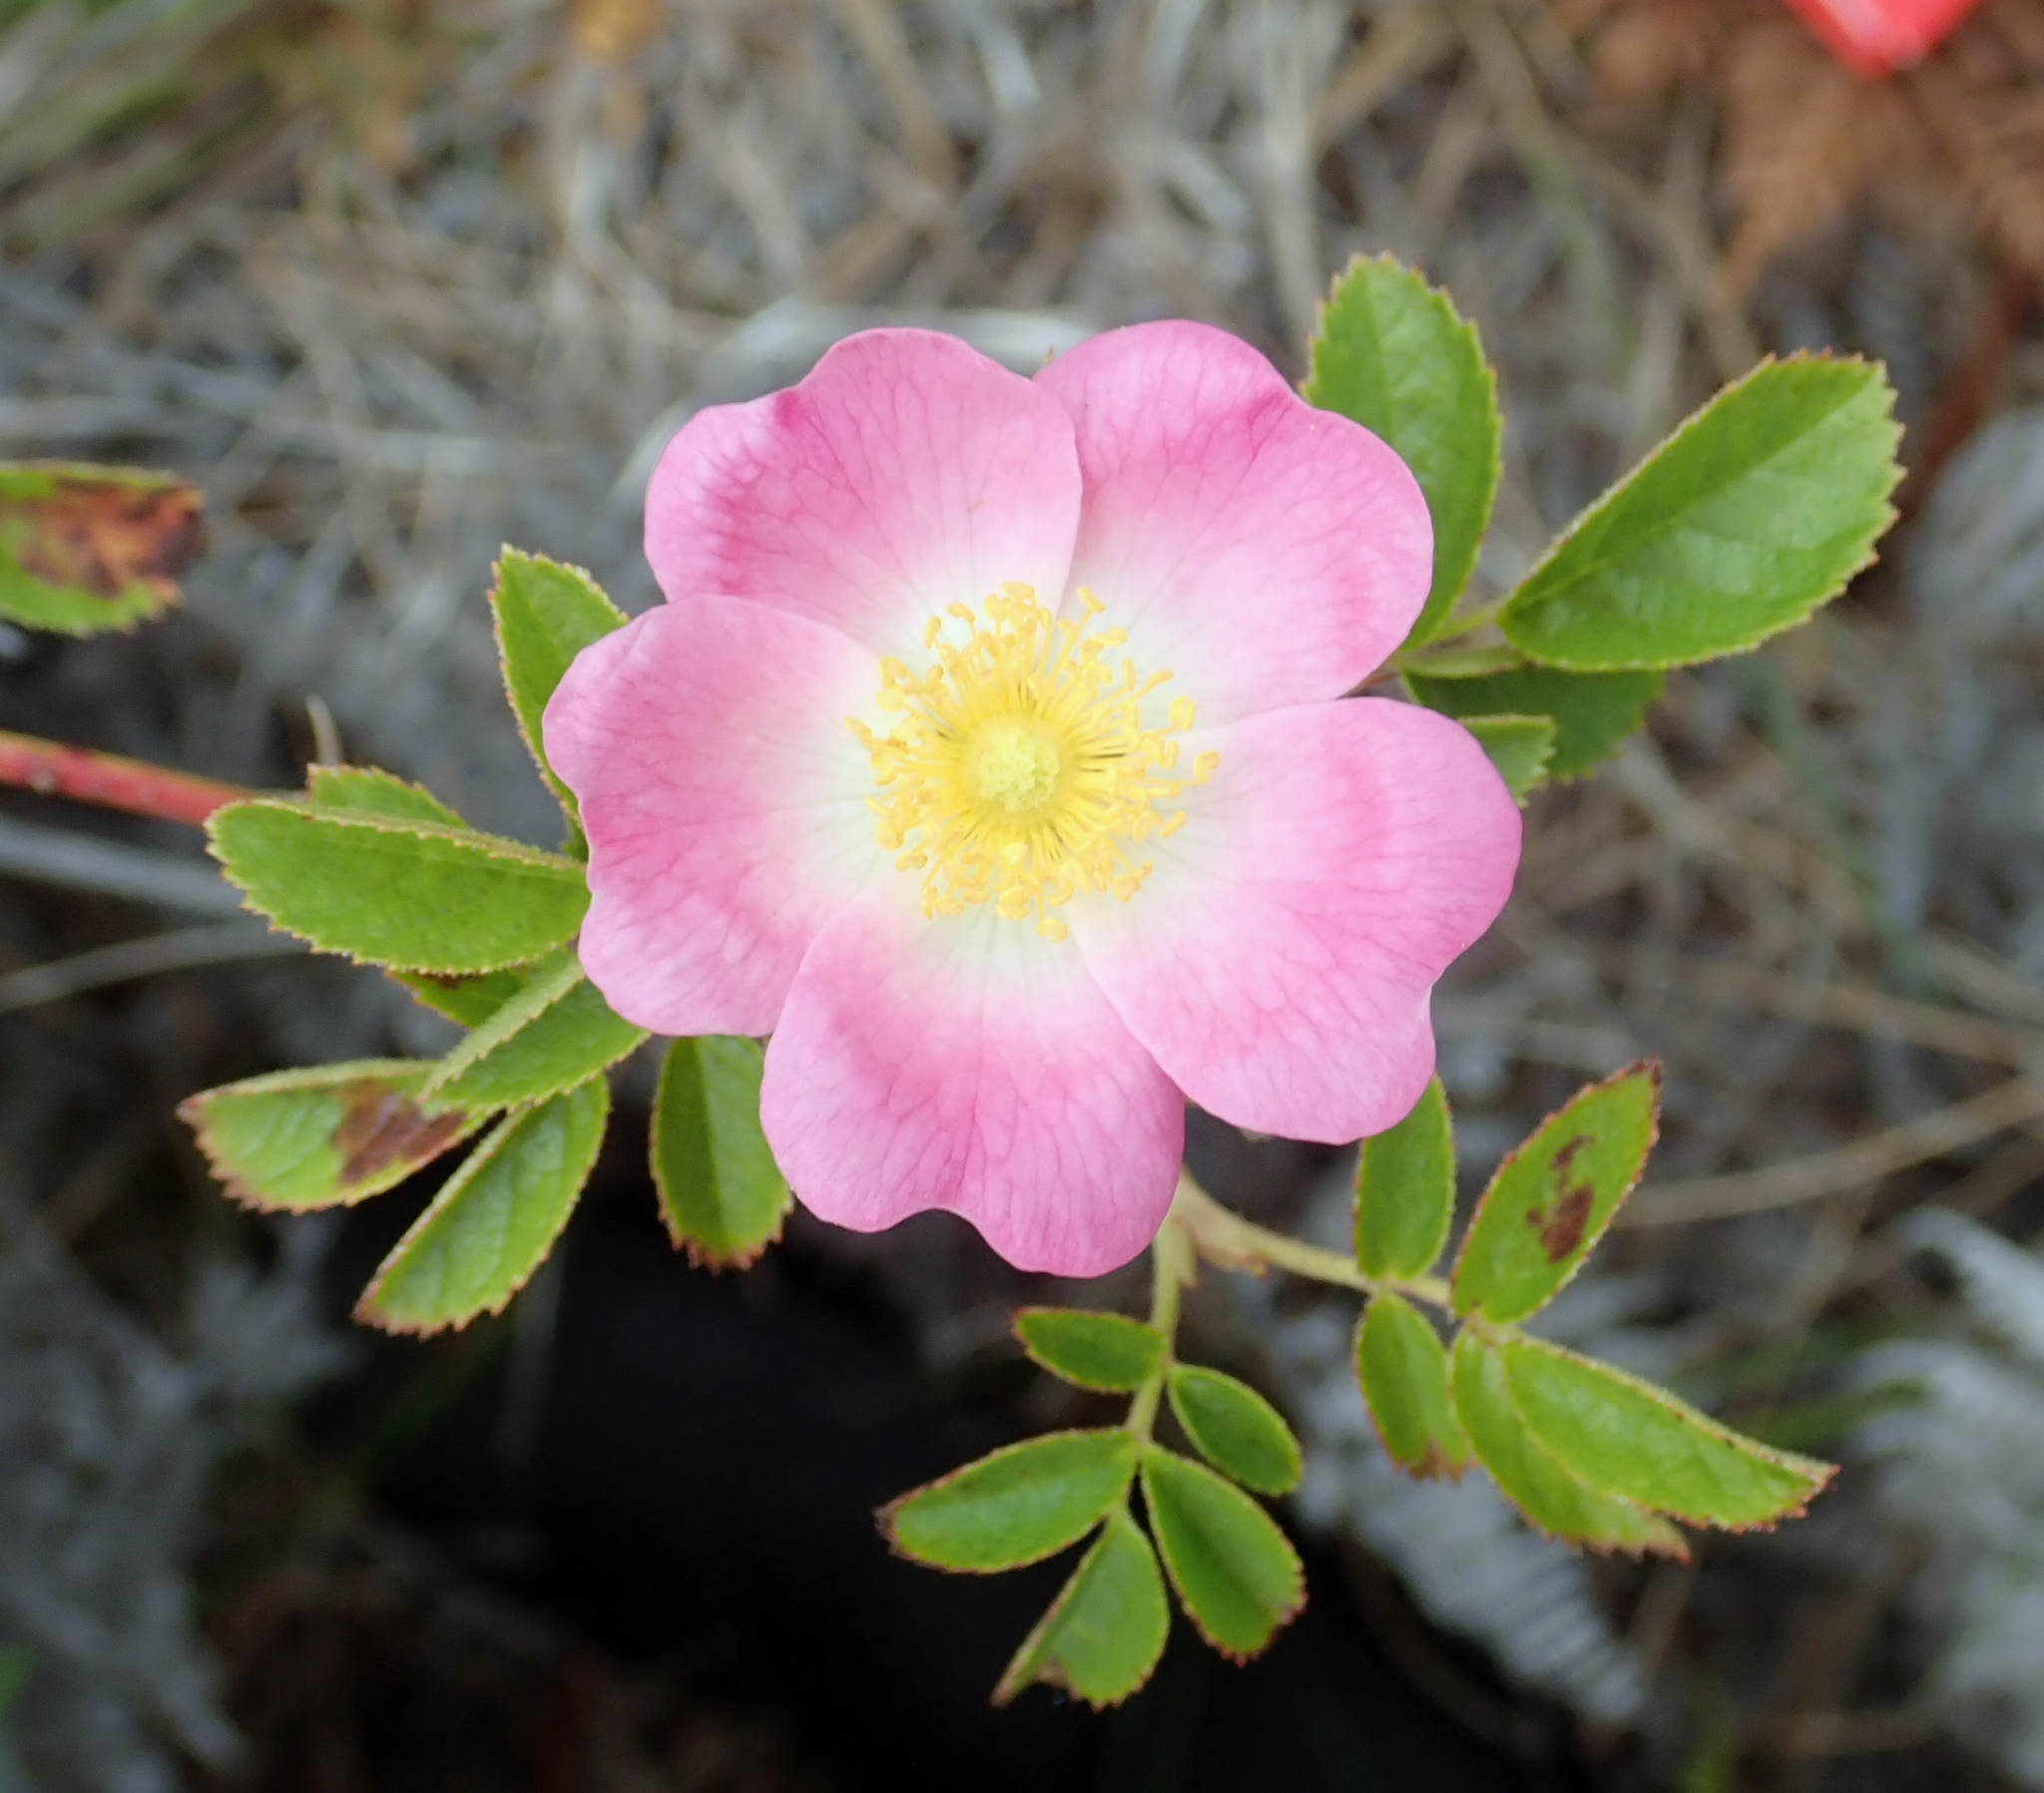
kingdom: Plantae
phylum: Tracheophyta
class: Magnoliopsida
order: Rosales
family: Rosaceae
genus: Rosa
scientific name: Rosa rubiginosa
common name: Sweet-briar
